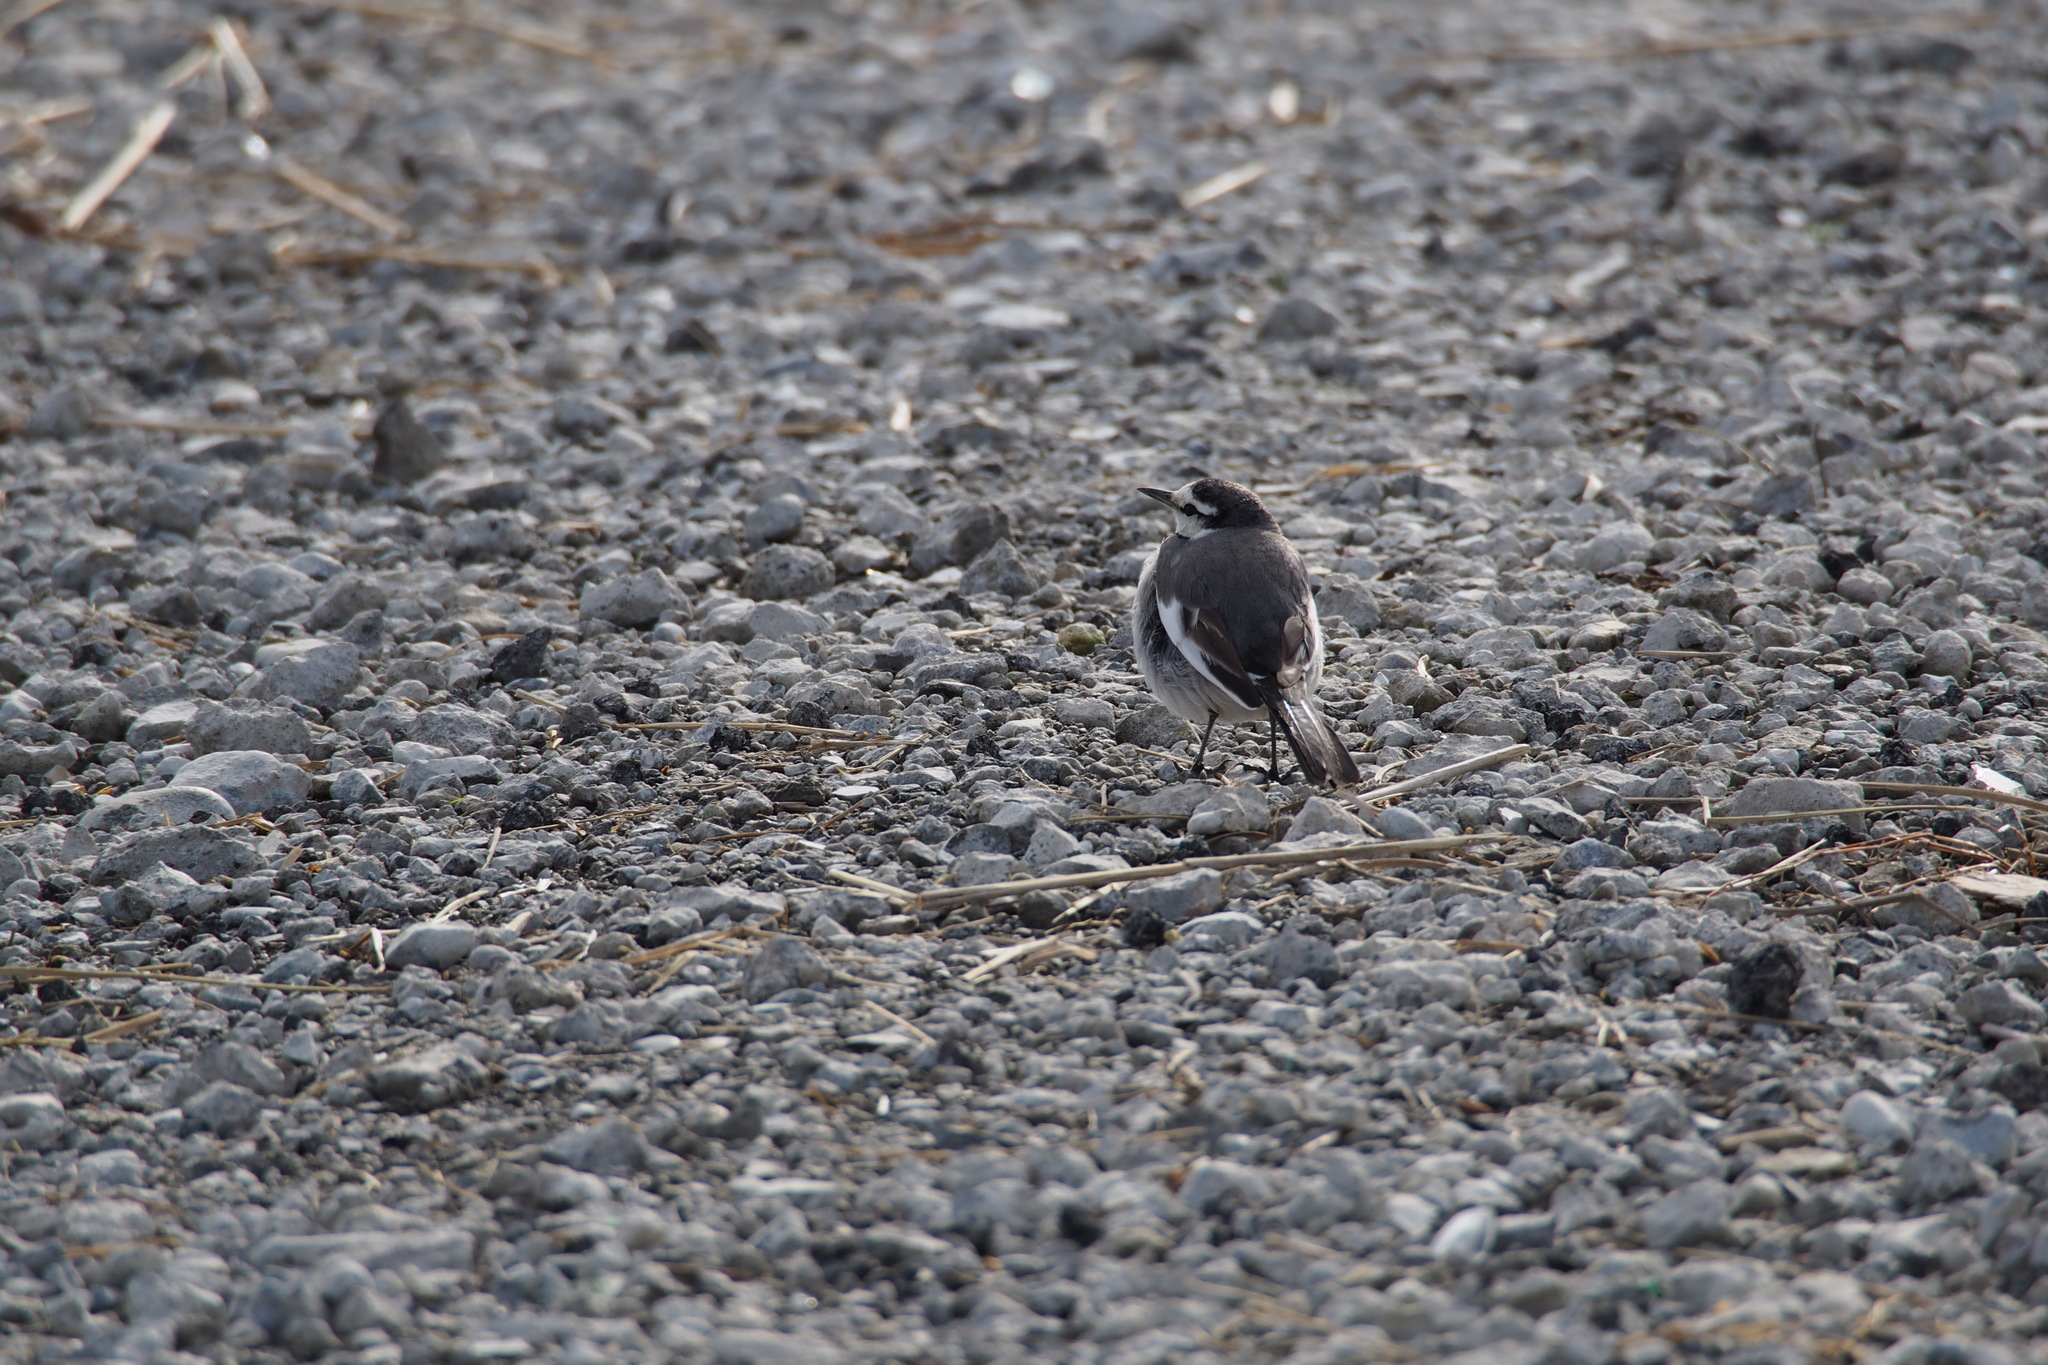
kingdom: Animalia
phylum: Chordata
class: Aves
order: Passeriformes
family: Motacillidae
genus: Motacilla
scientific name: Motacilla alba
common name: White wagtail
